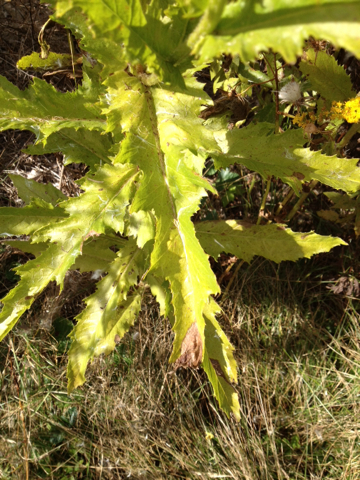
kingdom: Plantae
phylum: Tracheophyta
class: Magnoliopsida
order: Asterales
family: Asteraceae
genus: Erechtites
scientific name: Erechtites hieraciifolius
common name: American burnweed
